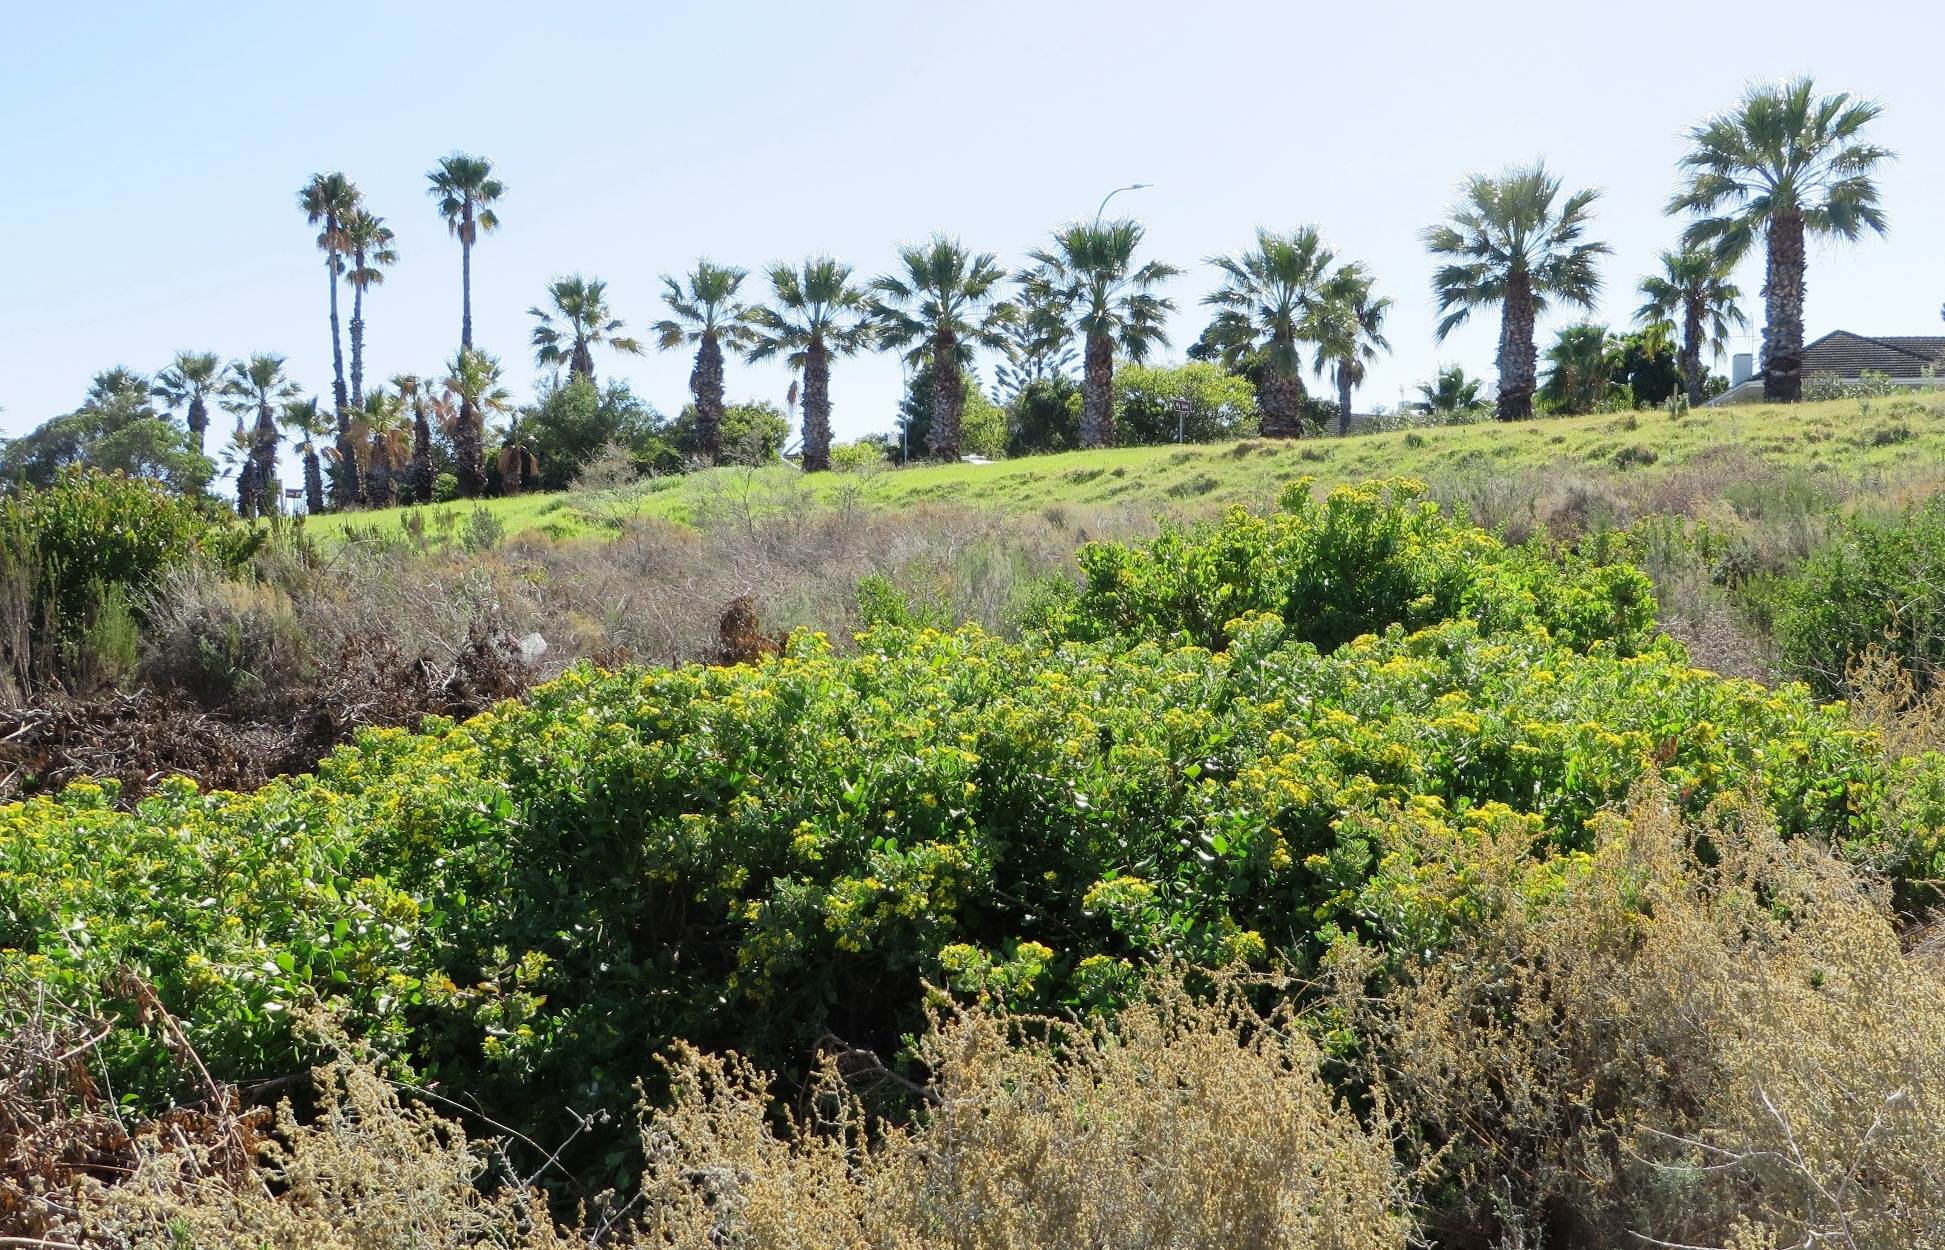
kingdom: Plantae
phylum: Tracheophyta
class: Magnoliopsida
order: Asterales
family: Asteraceae
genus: Osteospermum
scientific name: Osteospermum moniliferum
